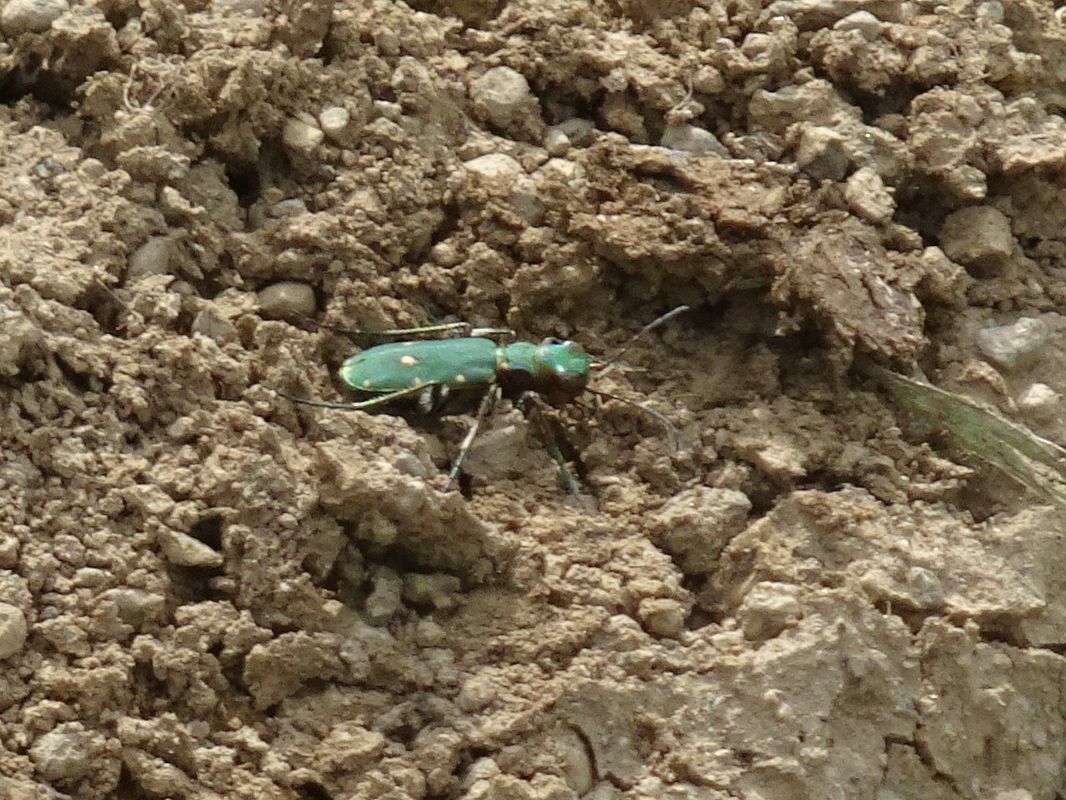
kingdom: Animalia
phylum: Arthropoda
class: Insecta
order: Coleoptera
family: Carabidae
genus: Cicindela
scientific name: Cicindela campestris
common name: Common tiger beetle
